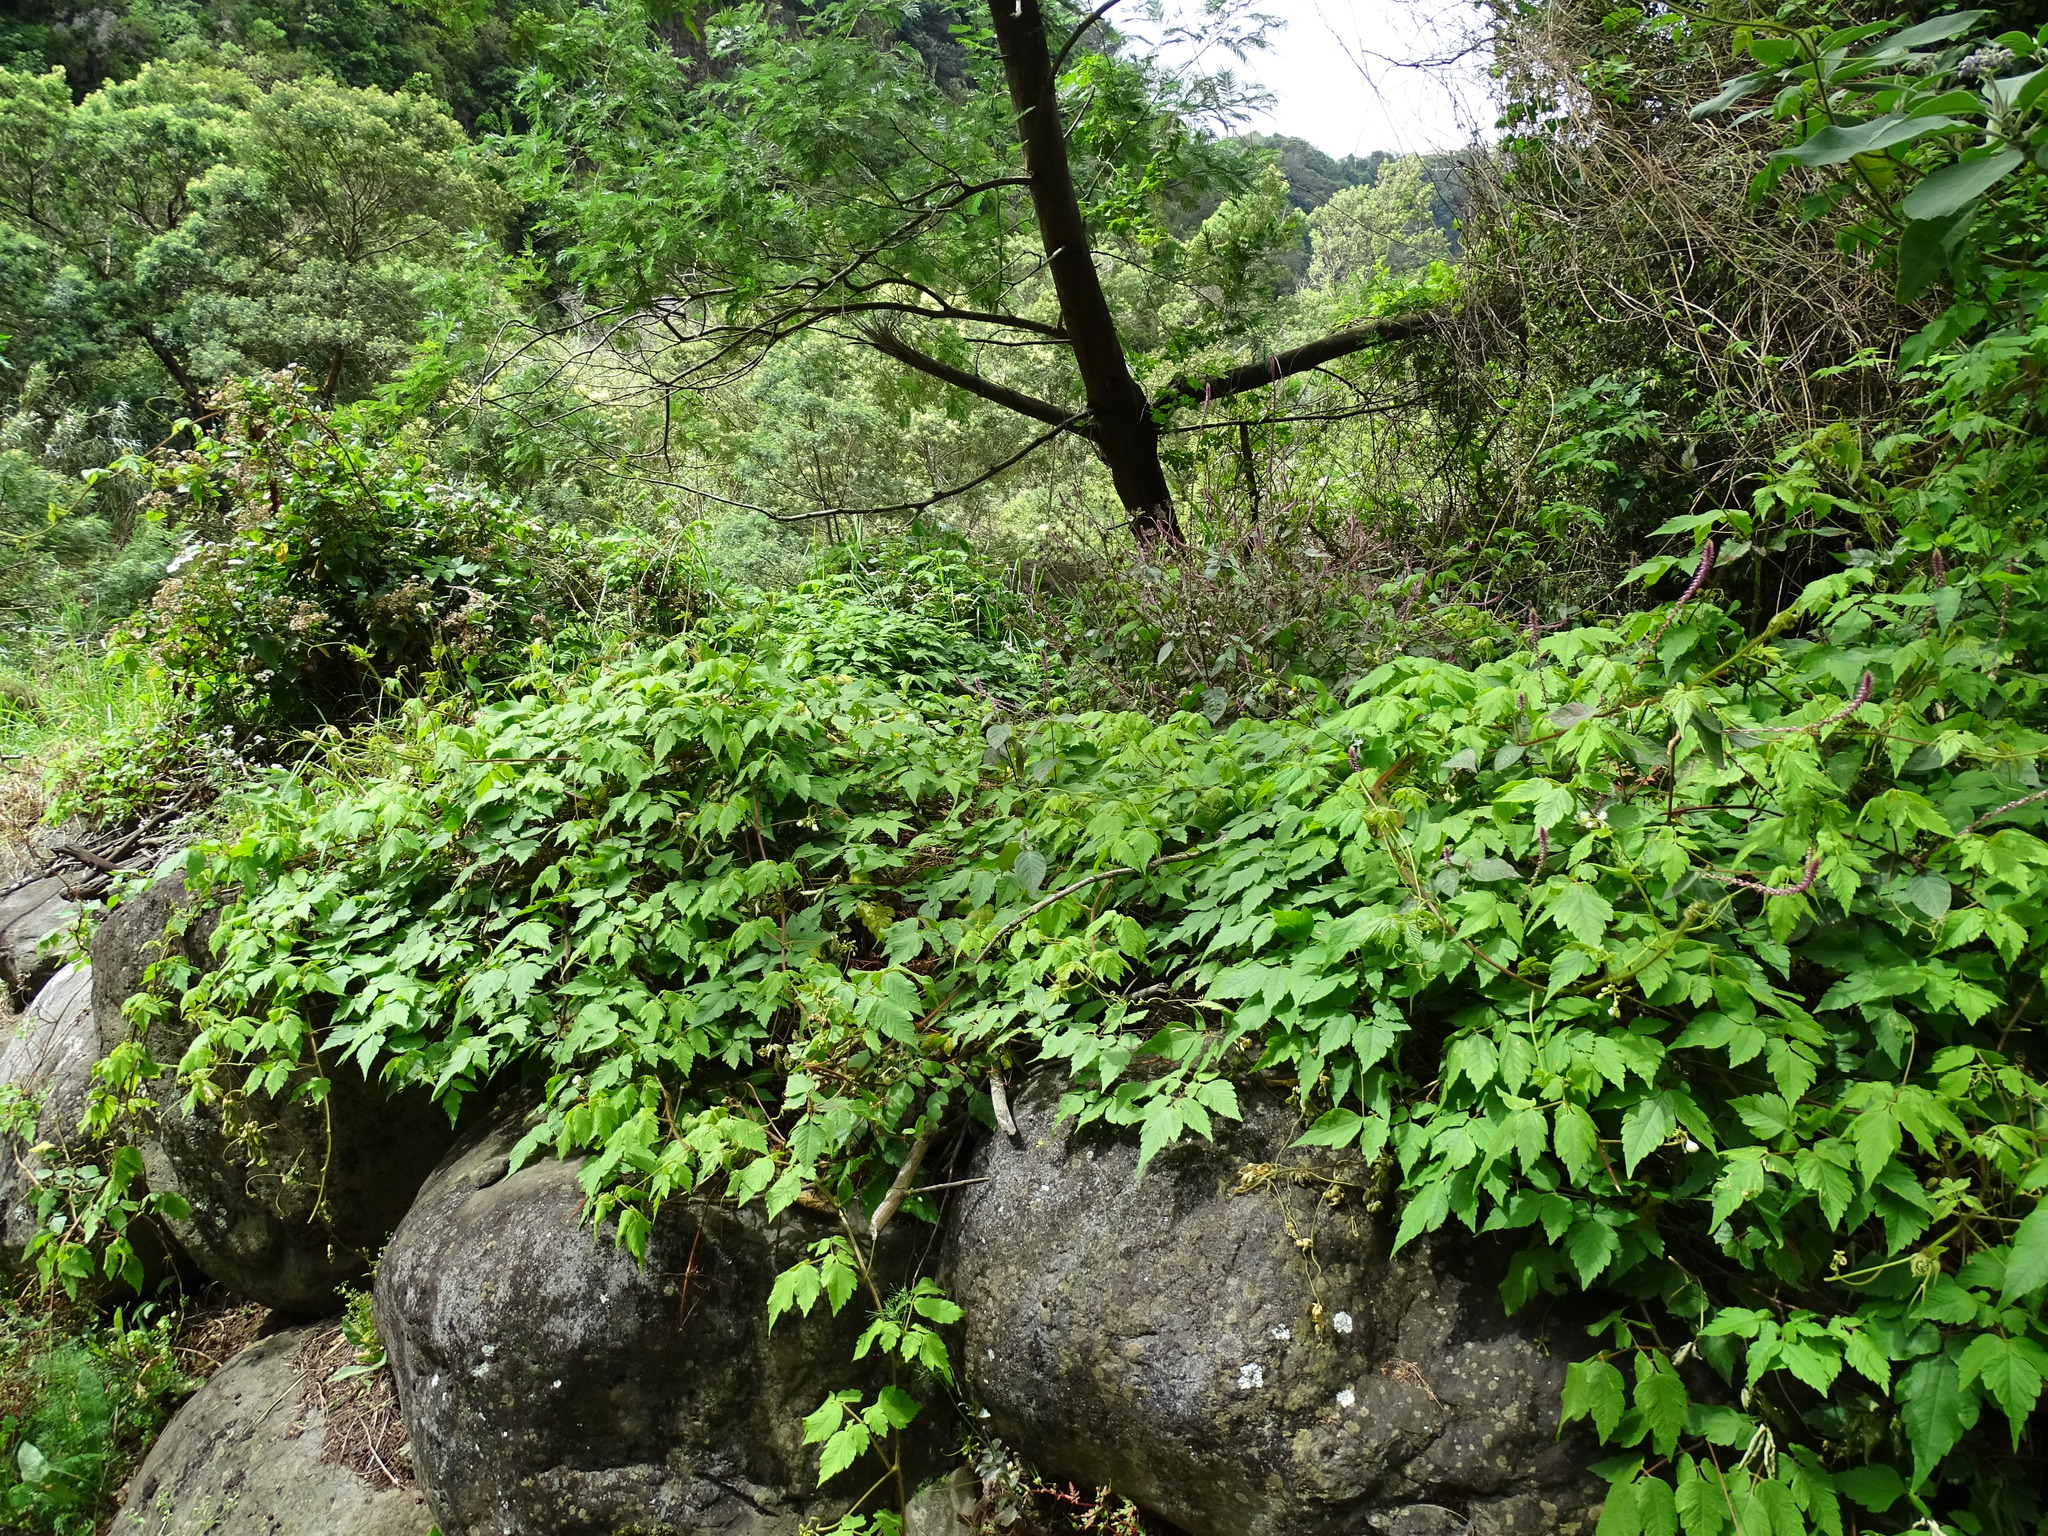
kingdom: Plantae
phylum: Tracheophyta
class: Magnoliopsida
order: Sapindales
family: Sapindaceae
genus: Cardiospermum
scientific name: Cardiospermum grandiflorum
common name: Balloon vine
